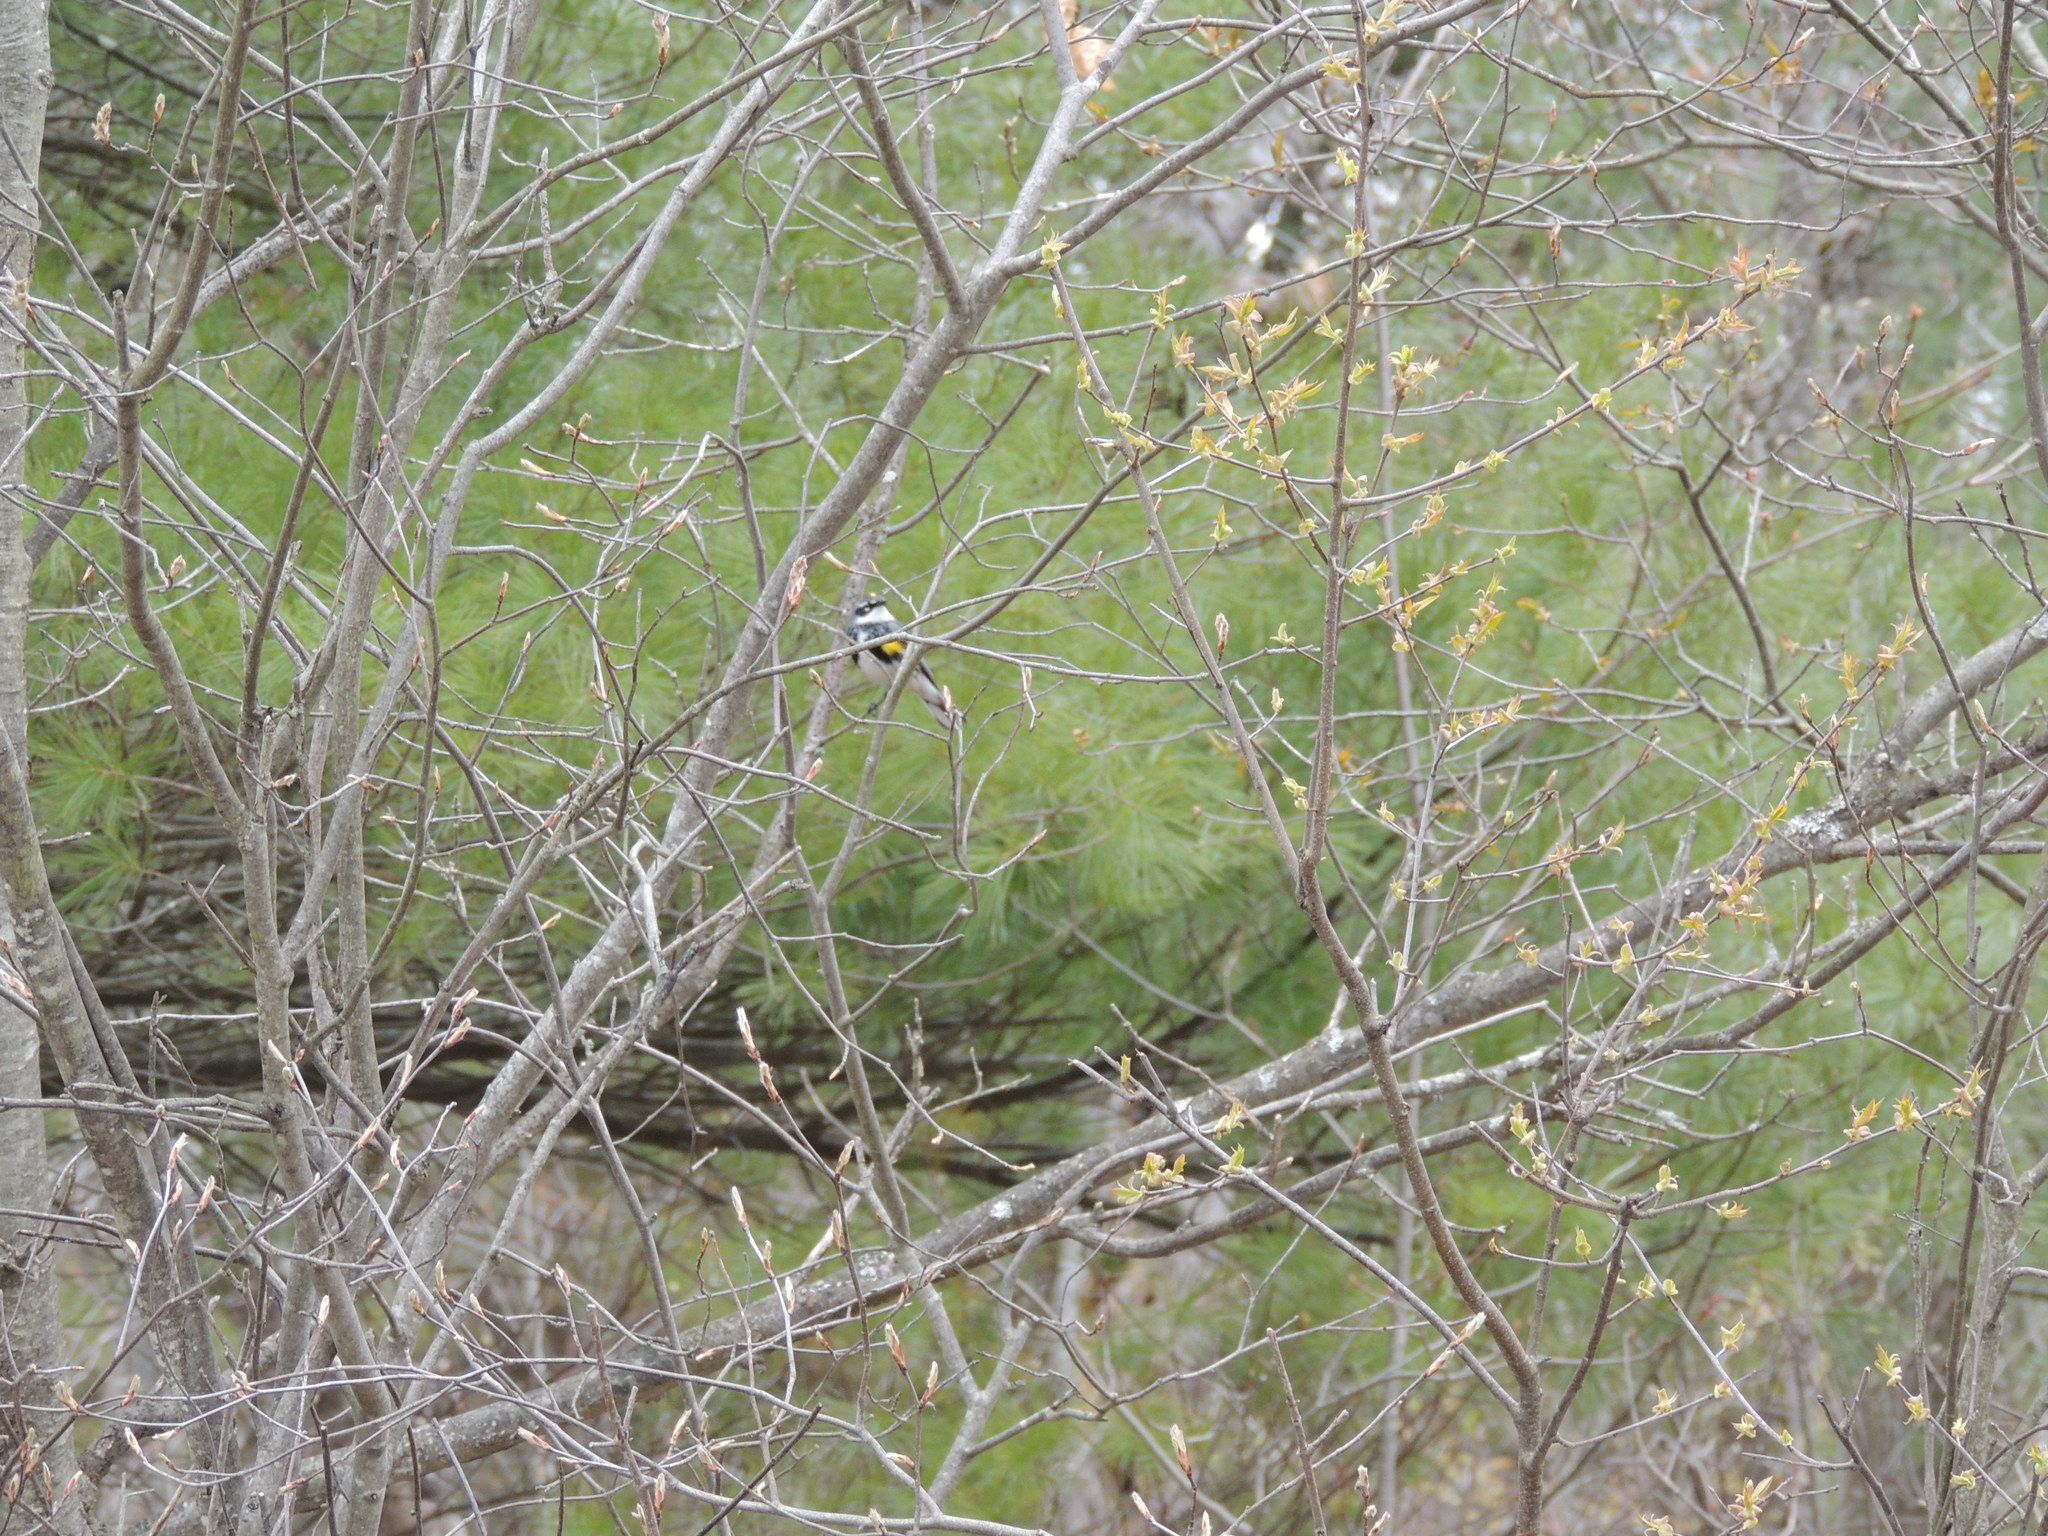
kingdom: Animalia
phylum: Chordata
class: Aves
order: Passeriformes
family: Parulidae
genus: Setophaga
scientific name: Setophaga coronata
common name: Myrtle warbler
